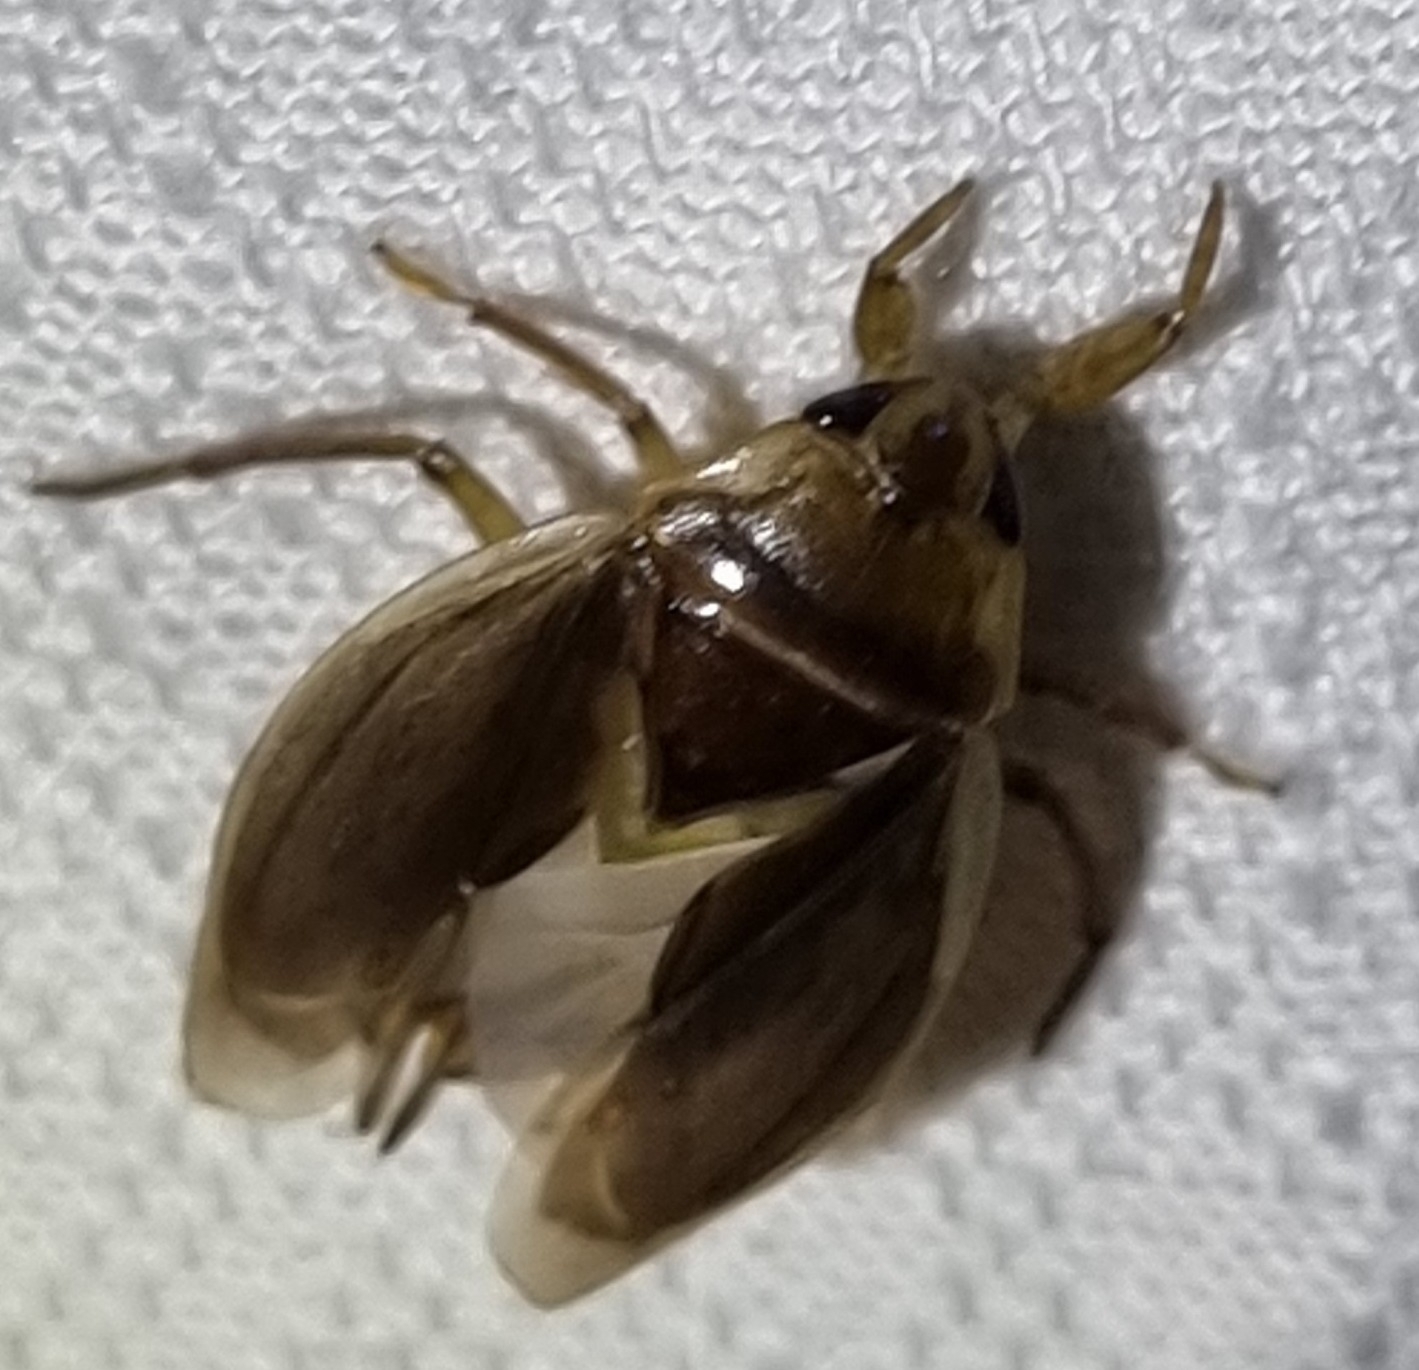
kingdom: Animalia
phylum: Arthropoda
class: Insecta
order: Hemiptera
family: Belostomatidae
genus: Diplonychus
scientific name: Diplonychus eques
